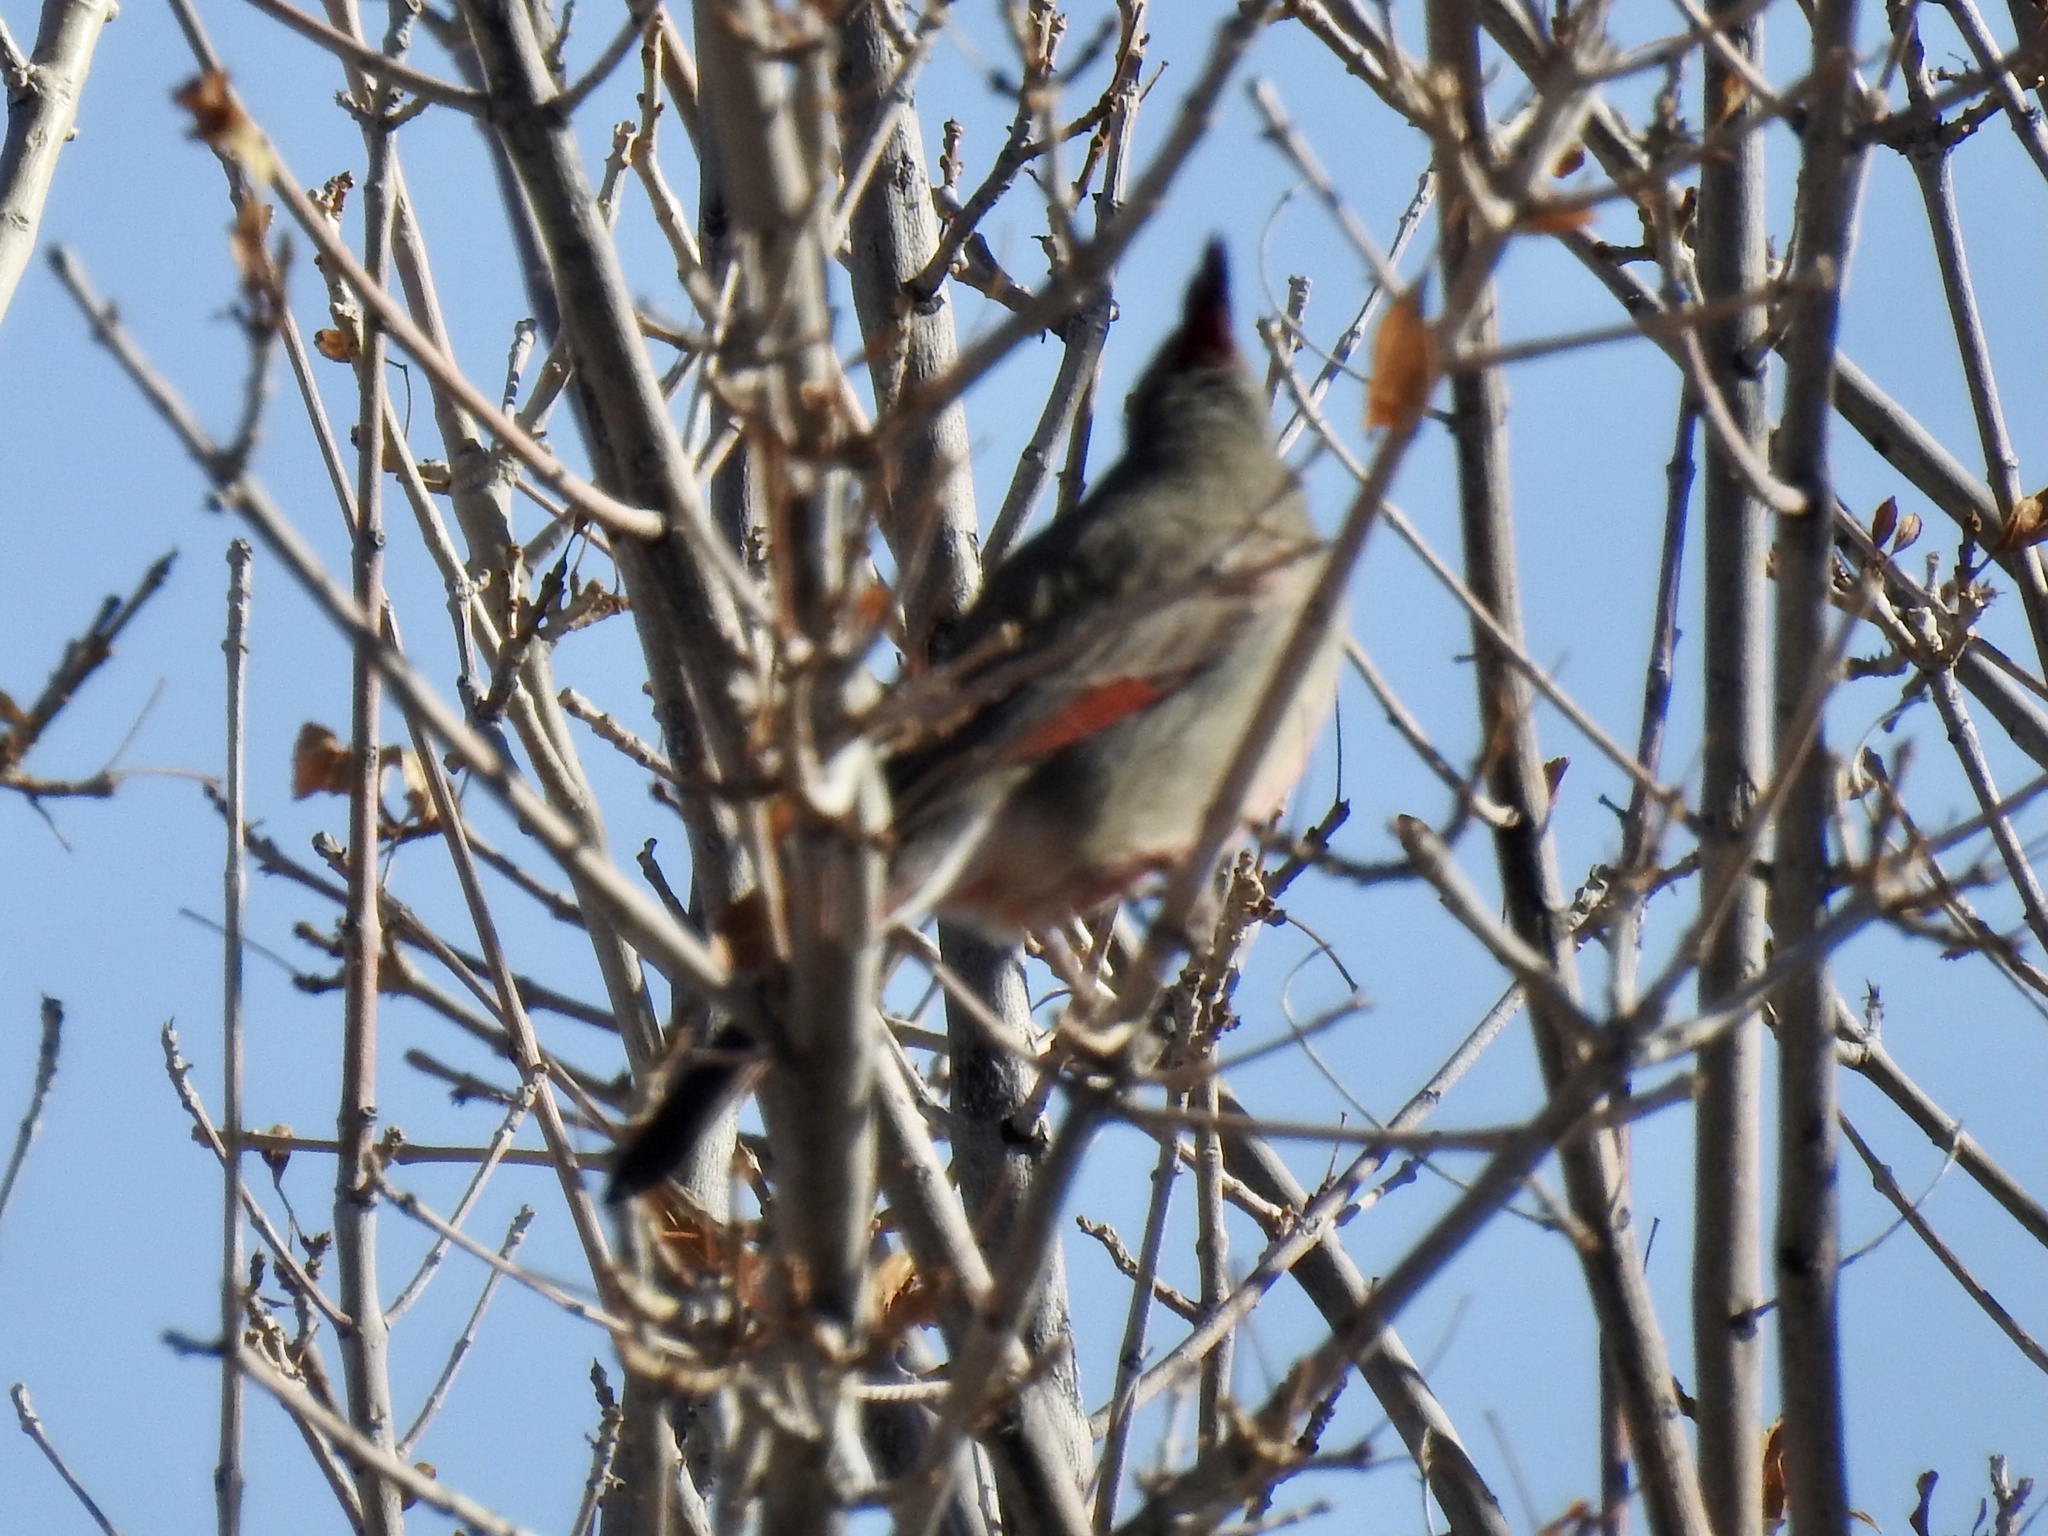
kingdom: Animalia
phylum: Chordata
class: Aves
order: Passeriformes
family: Cardinalidae
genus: Cardinalis
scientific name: Cardinalis sinuatus
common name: Pyrrhuloxia
